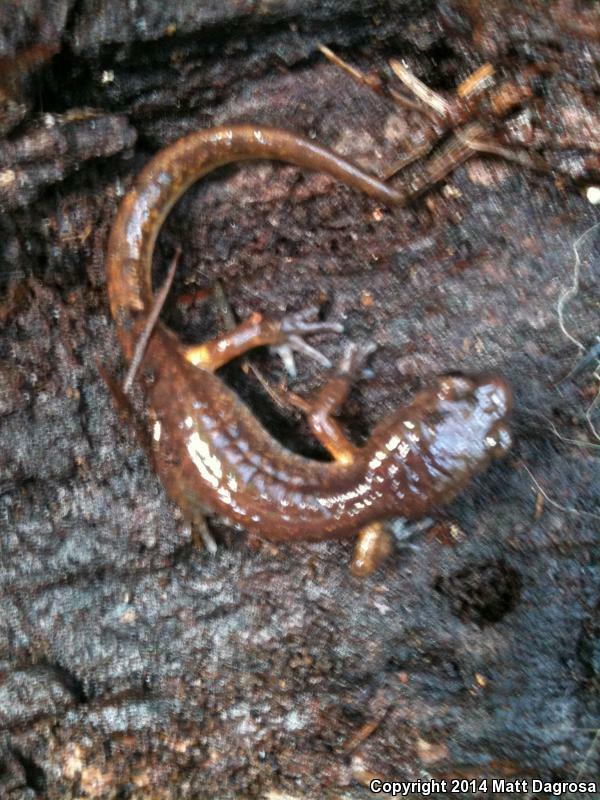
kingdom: Animalia
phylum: Chordata
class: Amphibia
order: Caudata
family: Plethodontidae
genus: Ensatina
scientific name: Ensatina eschscholtzii
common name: Ensatina
